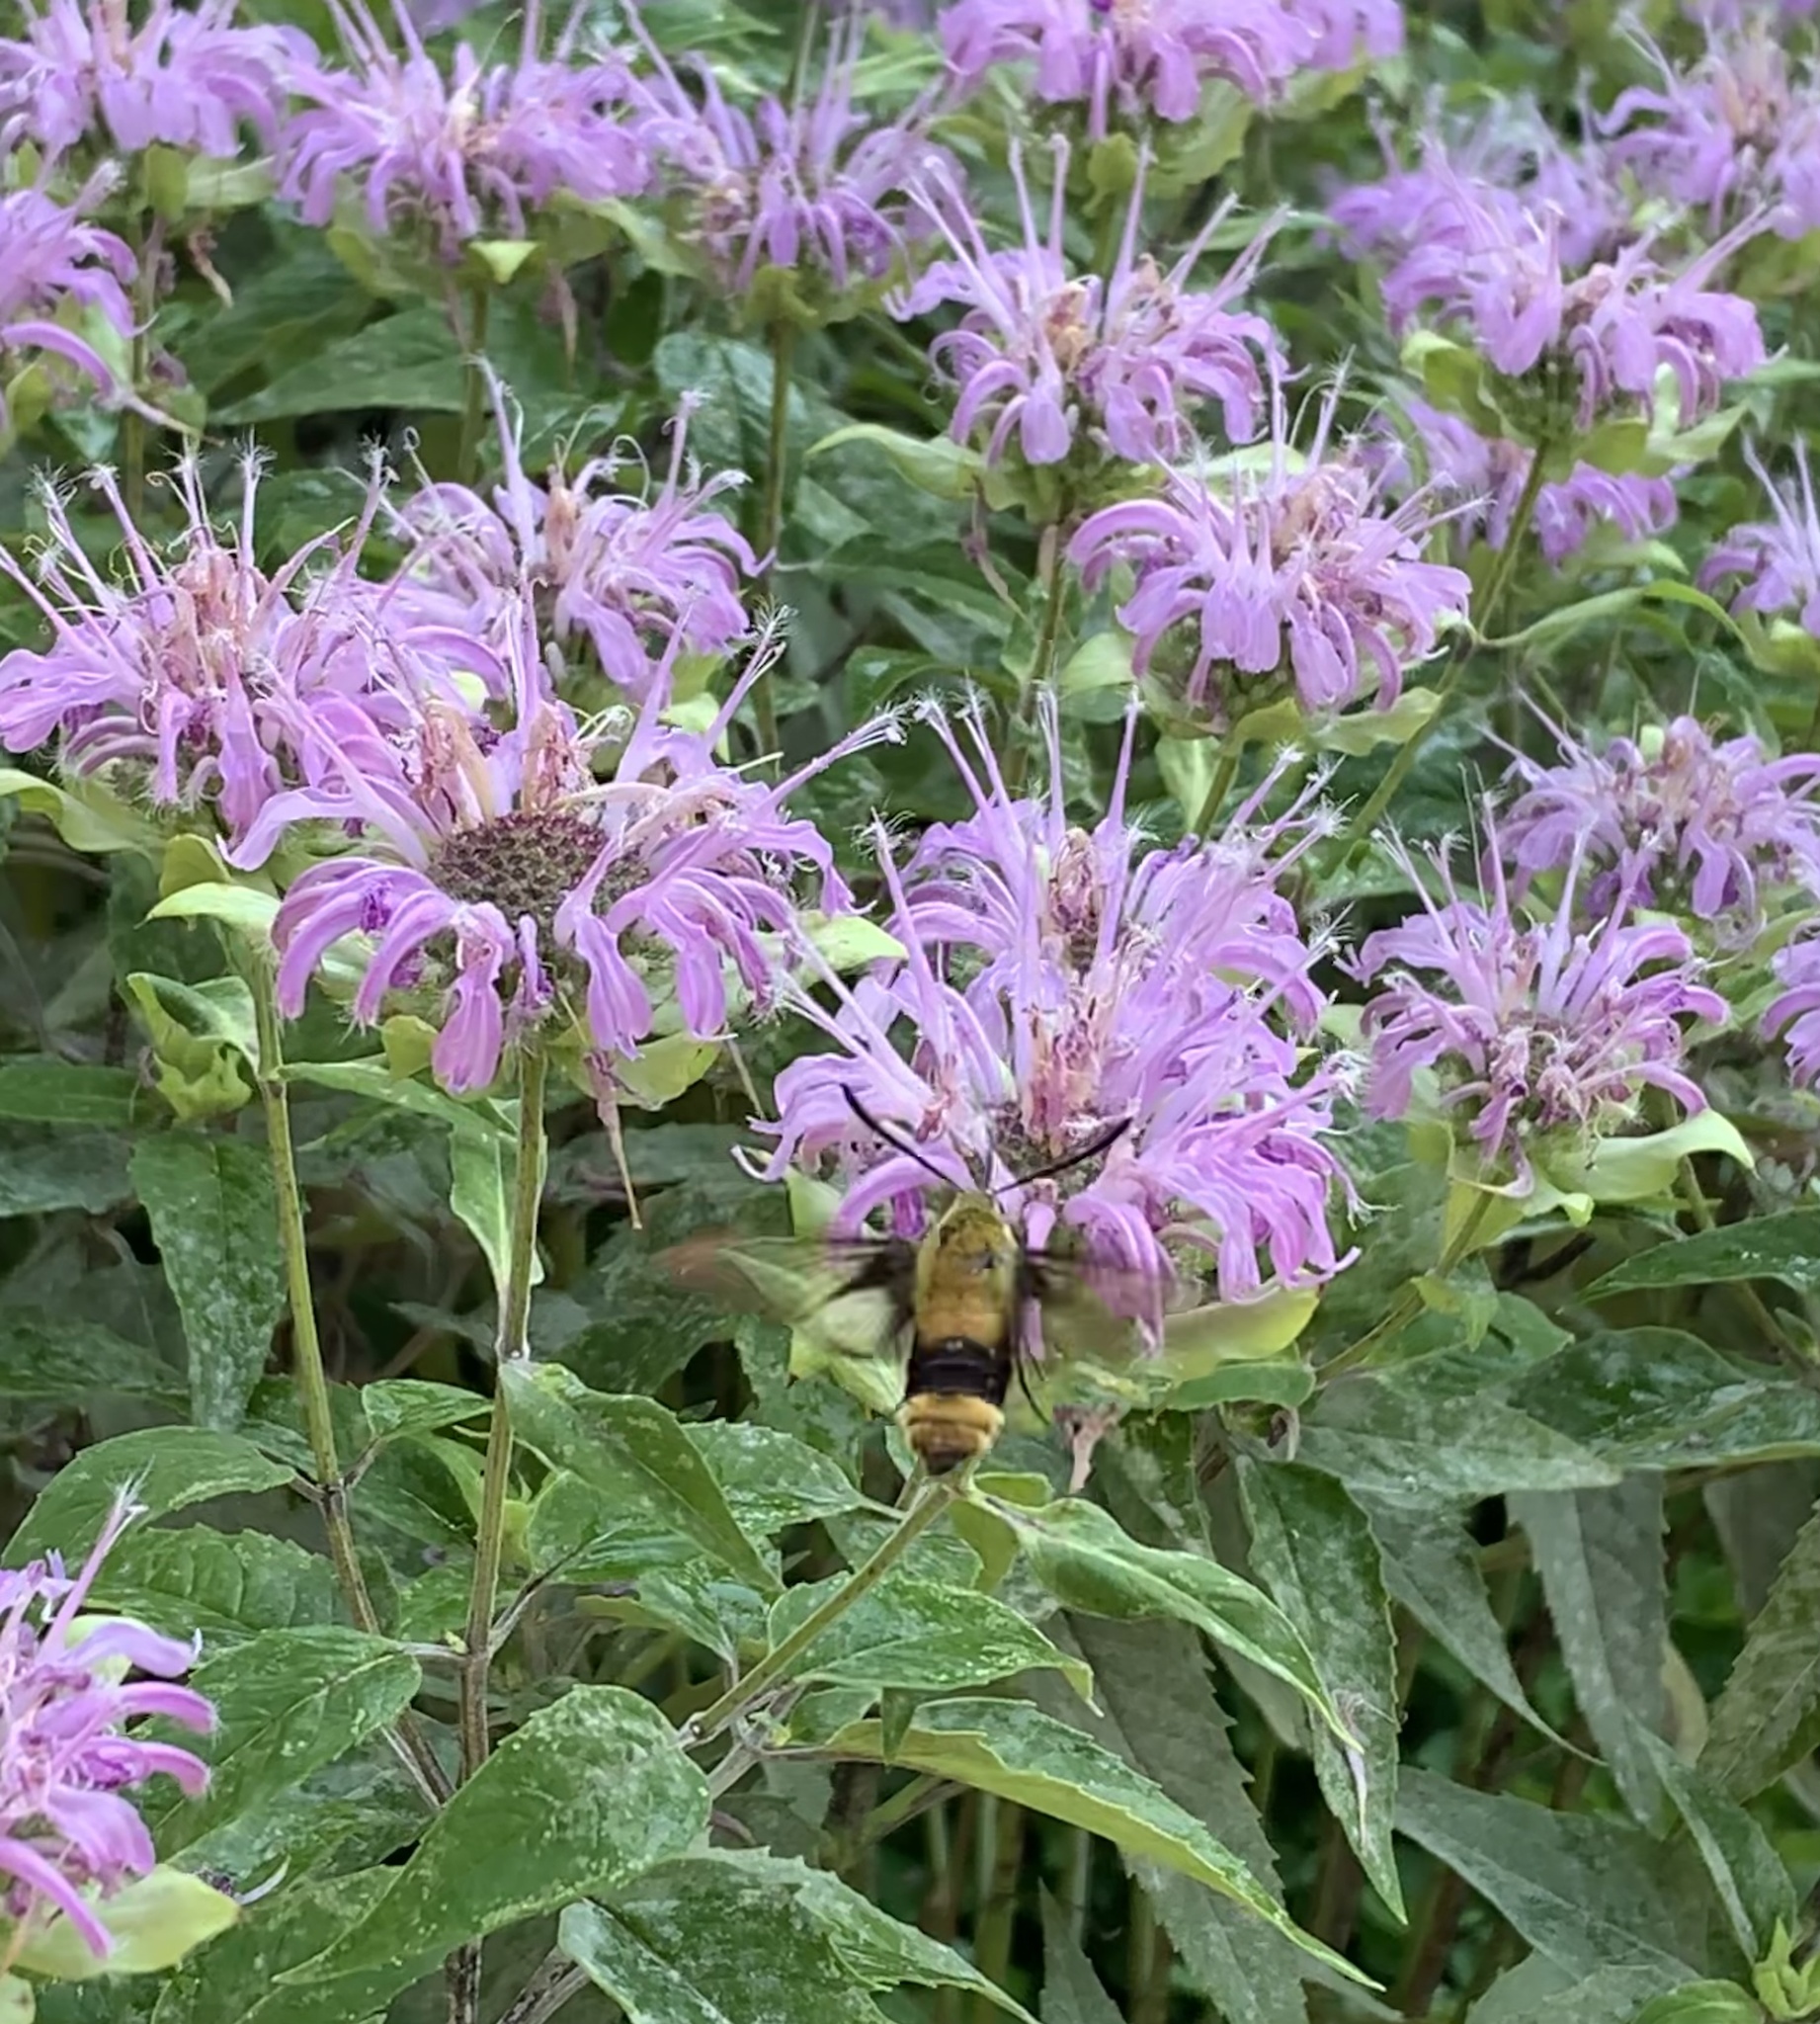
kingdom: Animalia
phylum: Arthropoda
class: Insecta
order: Lepidoptera
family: Sphingidae
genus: Hemaris
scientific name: Hemaris diffinis
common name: Bumblebee moth
